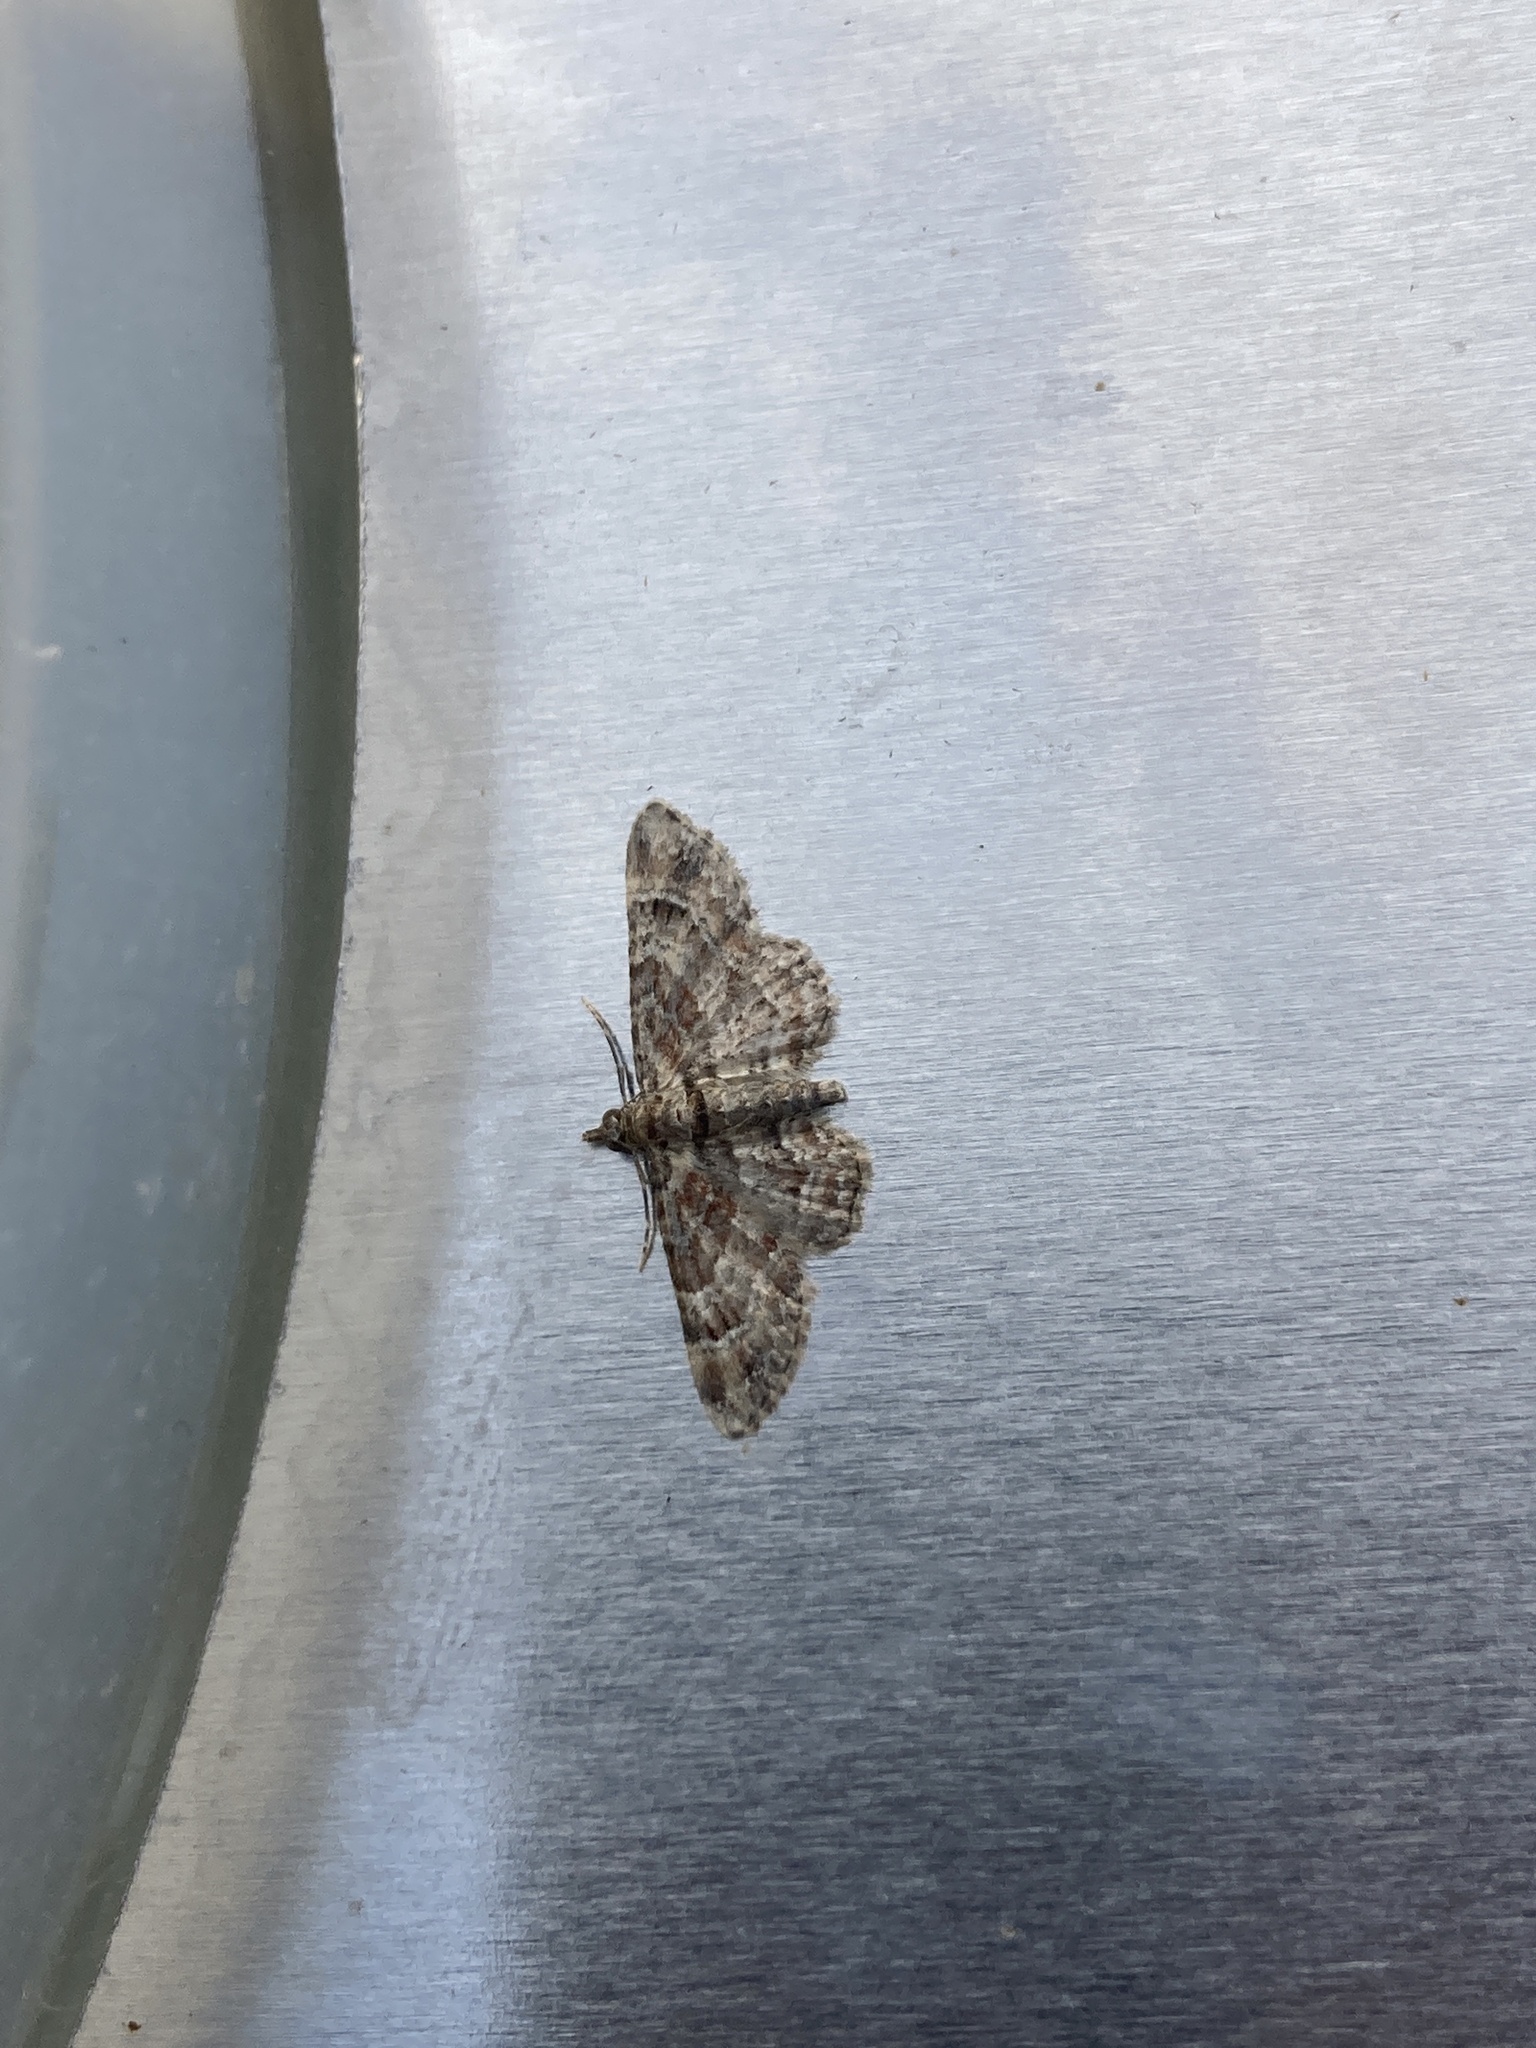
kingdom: Animalia
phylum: Arthropoda
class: Insecta
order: Lepidoptera
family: Geometridae
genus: Gymnoscelis
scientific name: Gymnoscelis rufifasciata
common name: Double-striped pug
